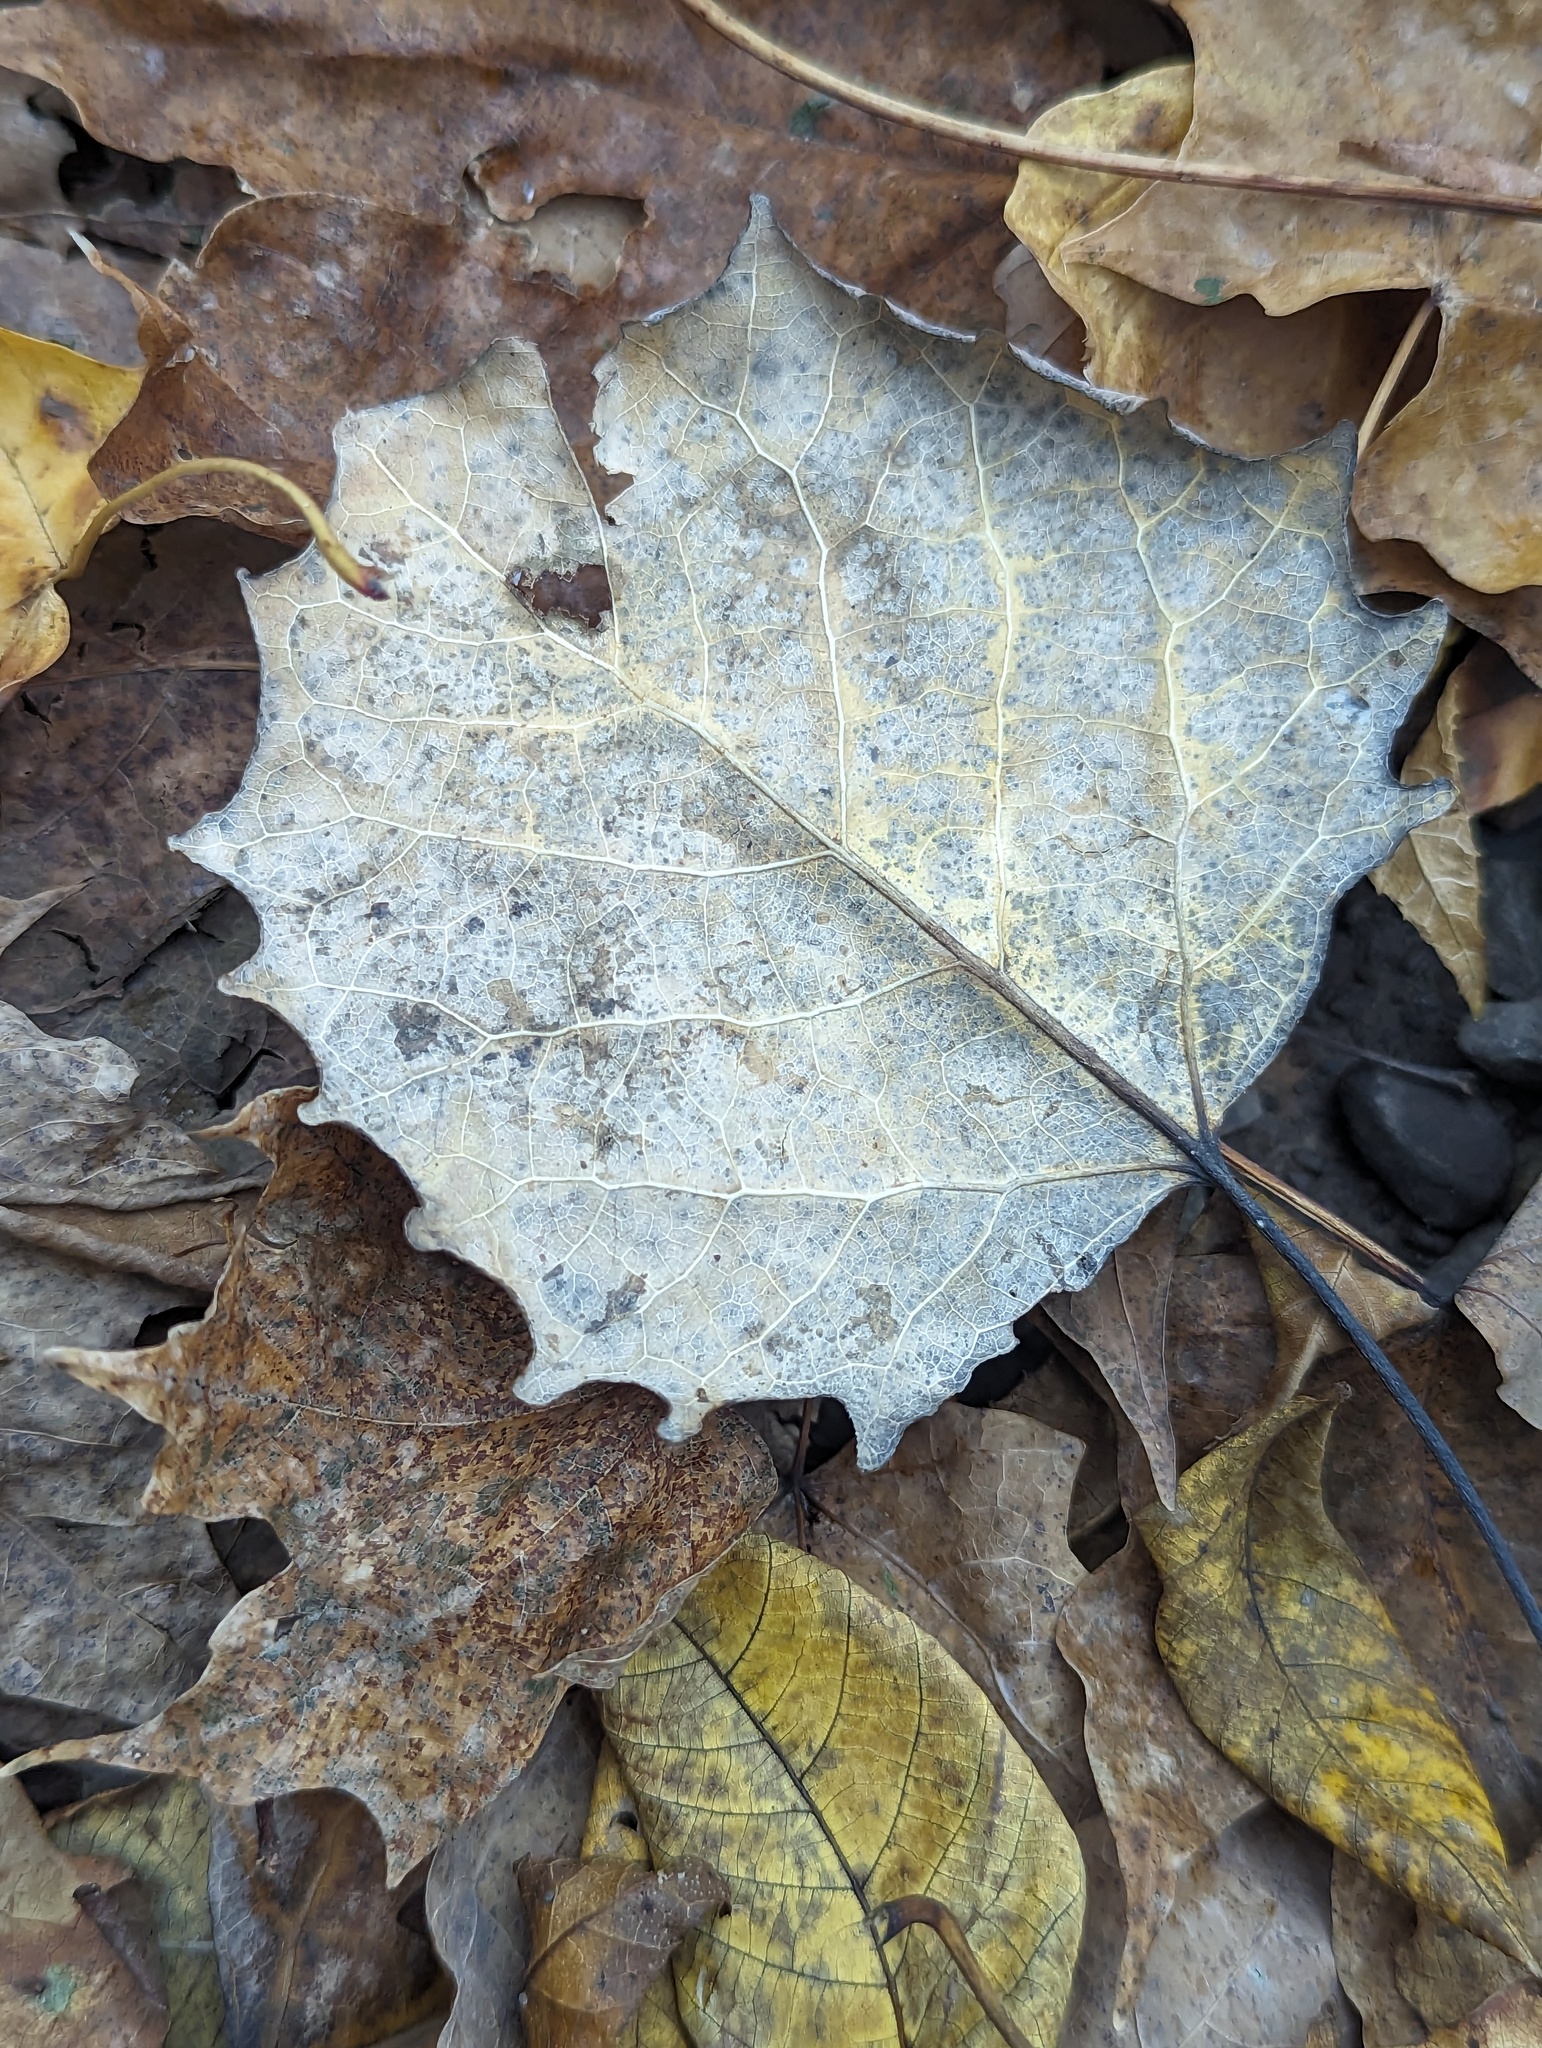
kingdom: Plantae
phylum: Tracheophyta
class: Magnoliopsida
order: Malpighiales
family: Salicaceae
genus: Populus
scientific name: Populus grandidentata
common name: Bigtooth aspen
